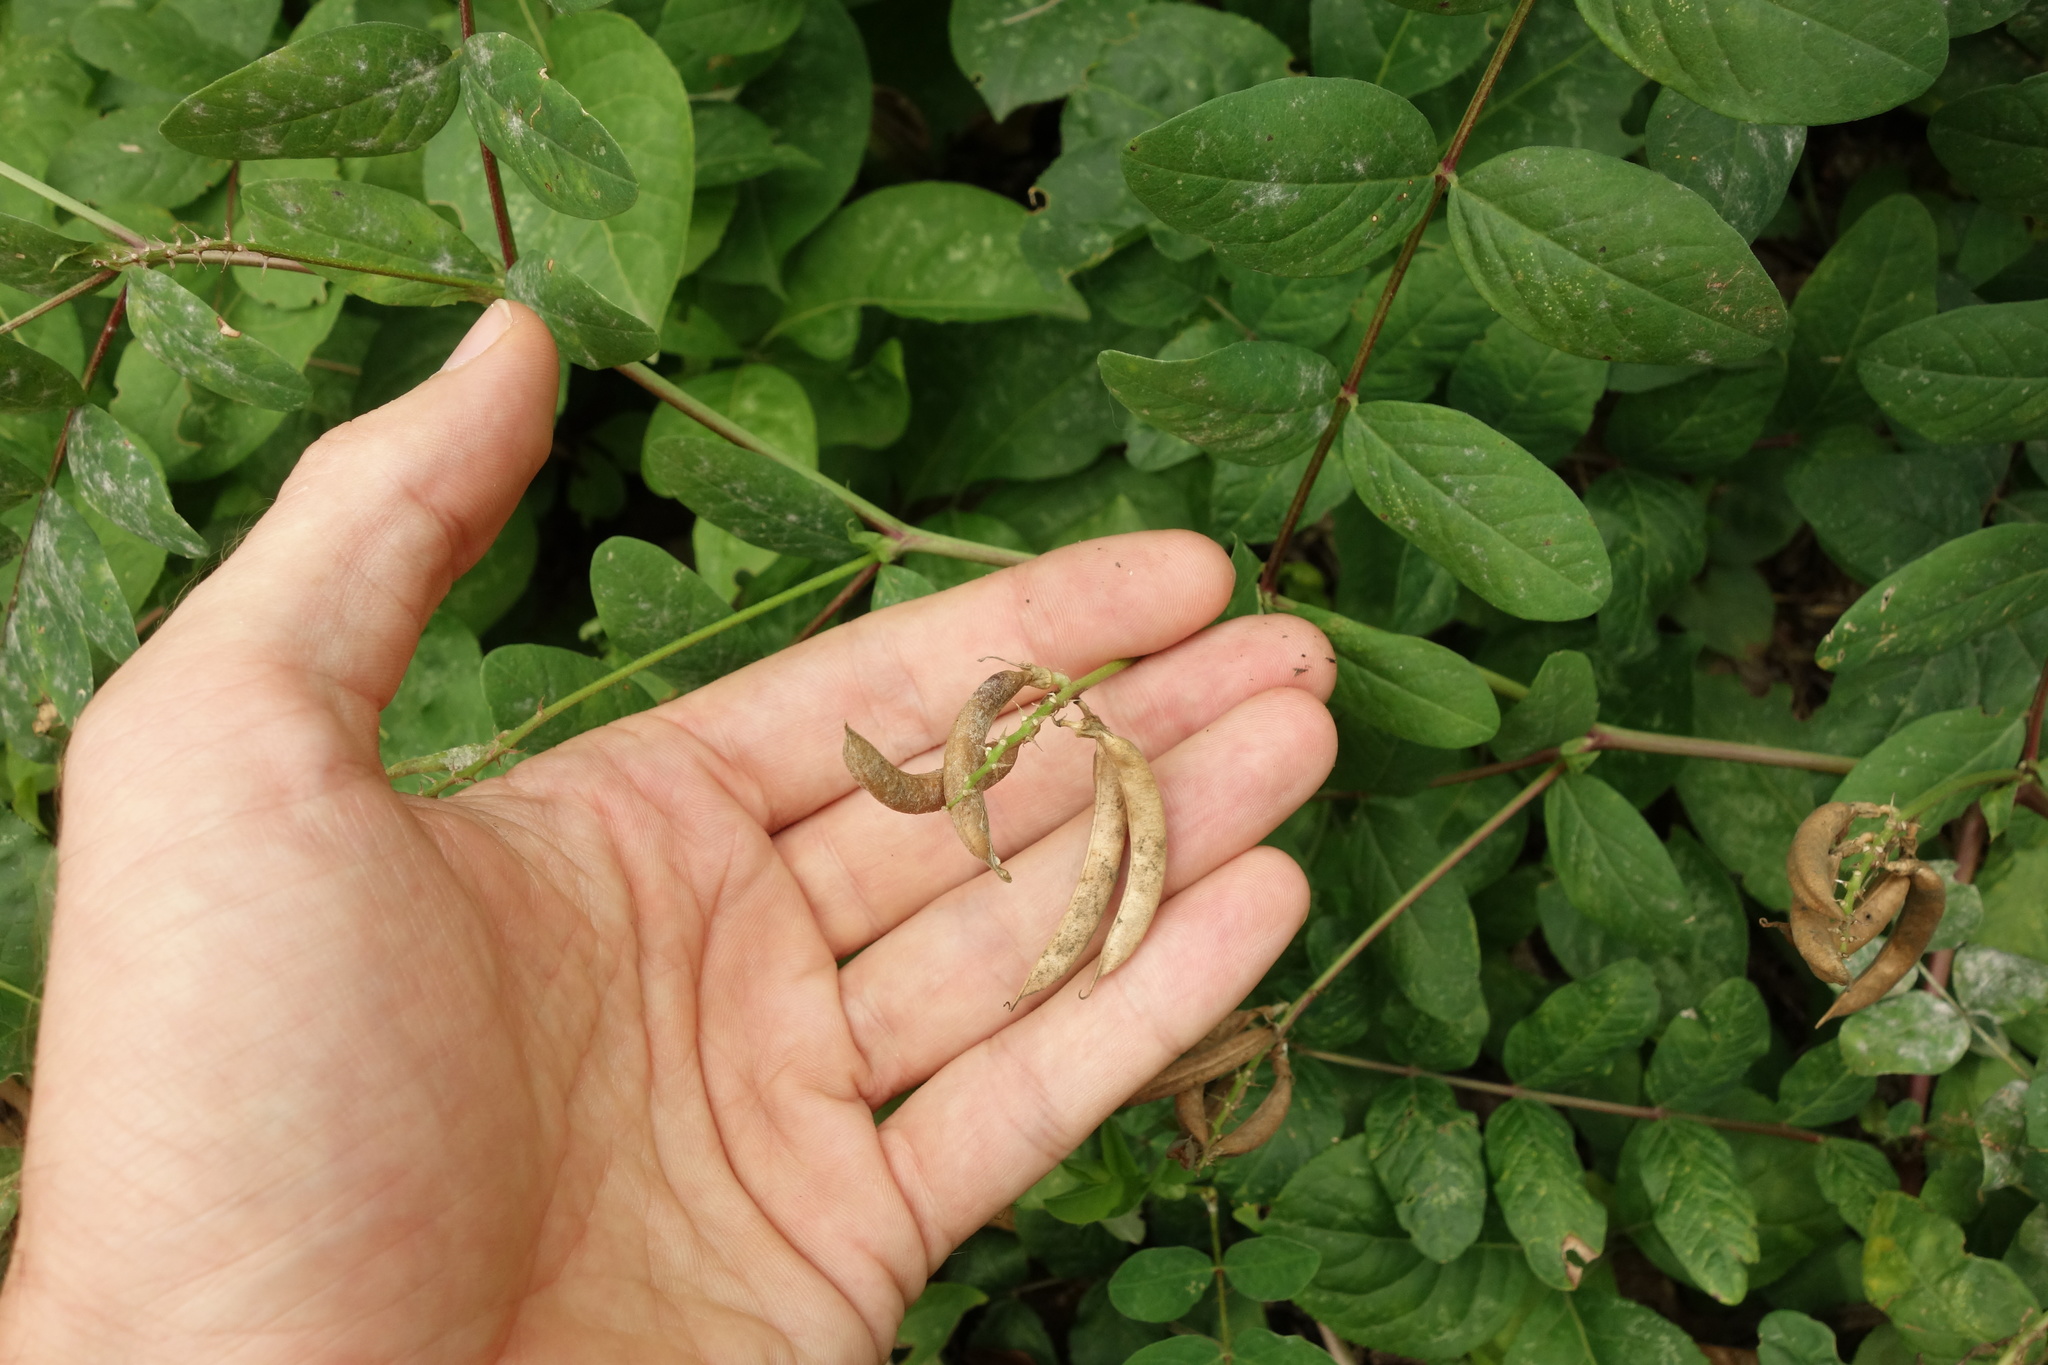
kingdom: Plantae
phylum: Tracheophyta
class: Magnoliopsida
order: Fabales
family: Fabaceae
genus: Astragalus
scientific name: Astragalus glycyphyllos
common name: Wild liquorice
